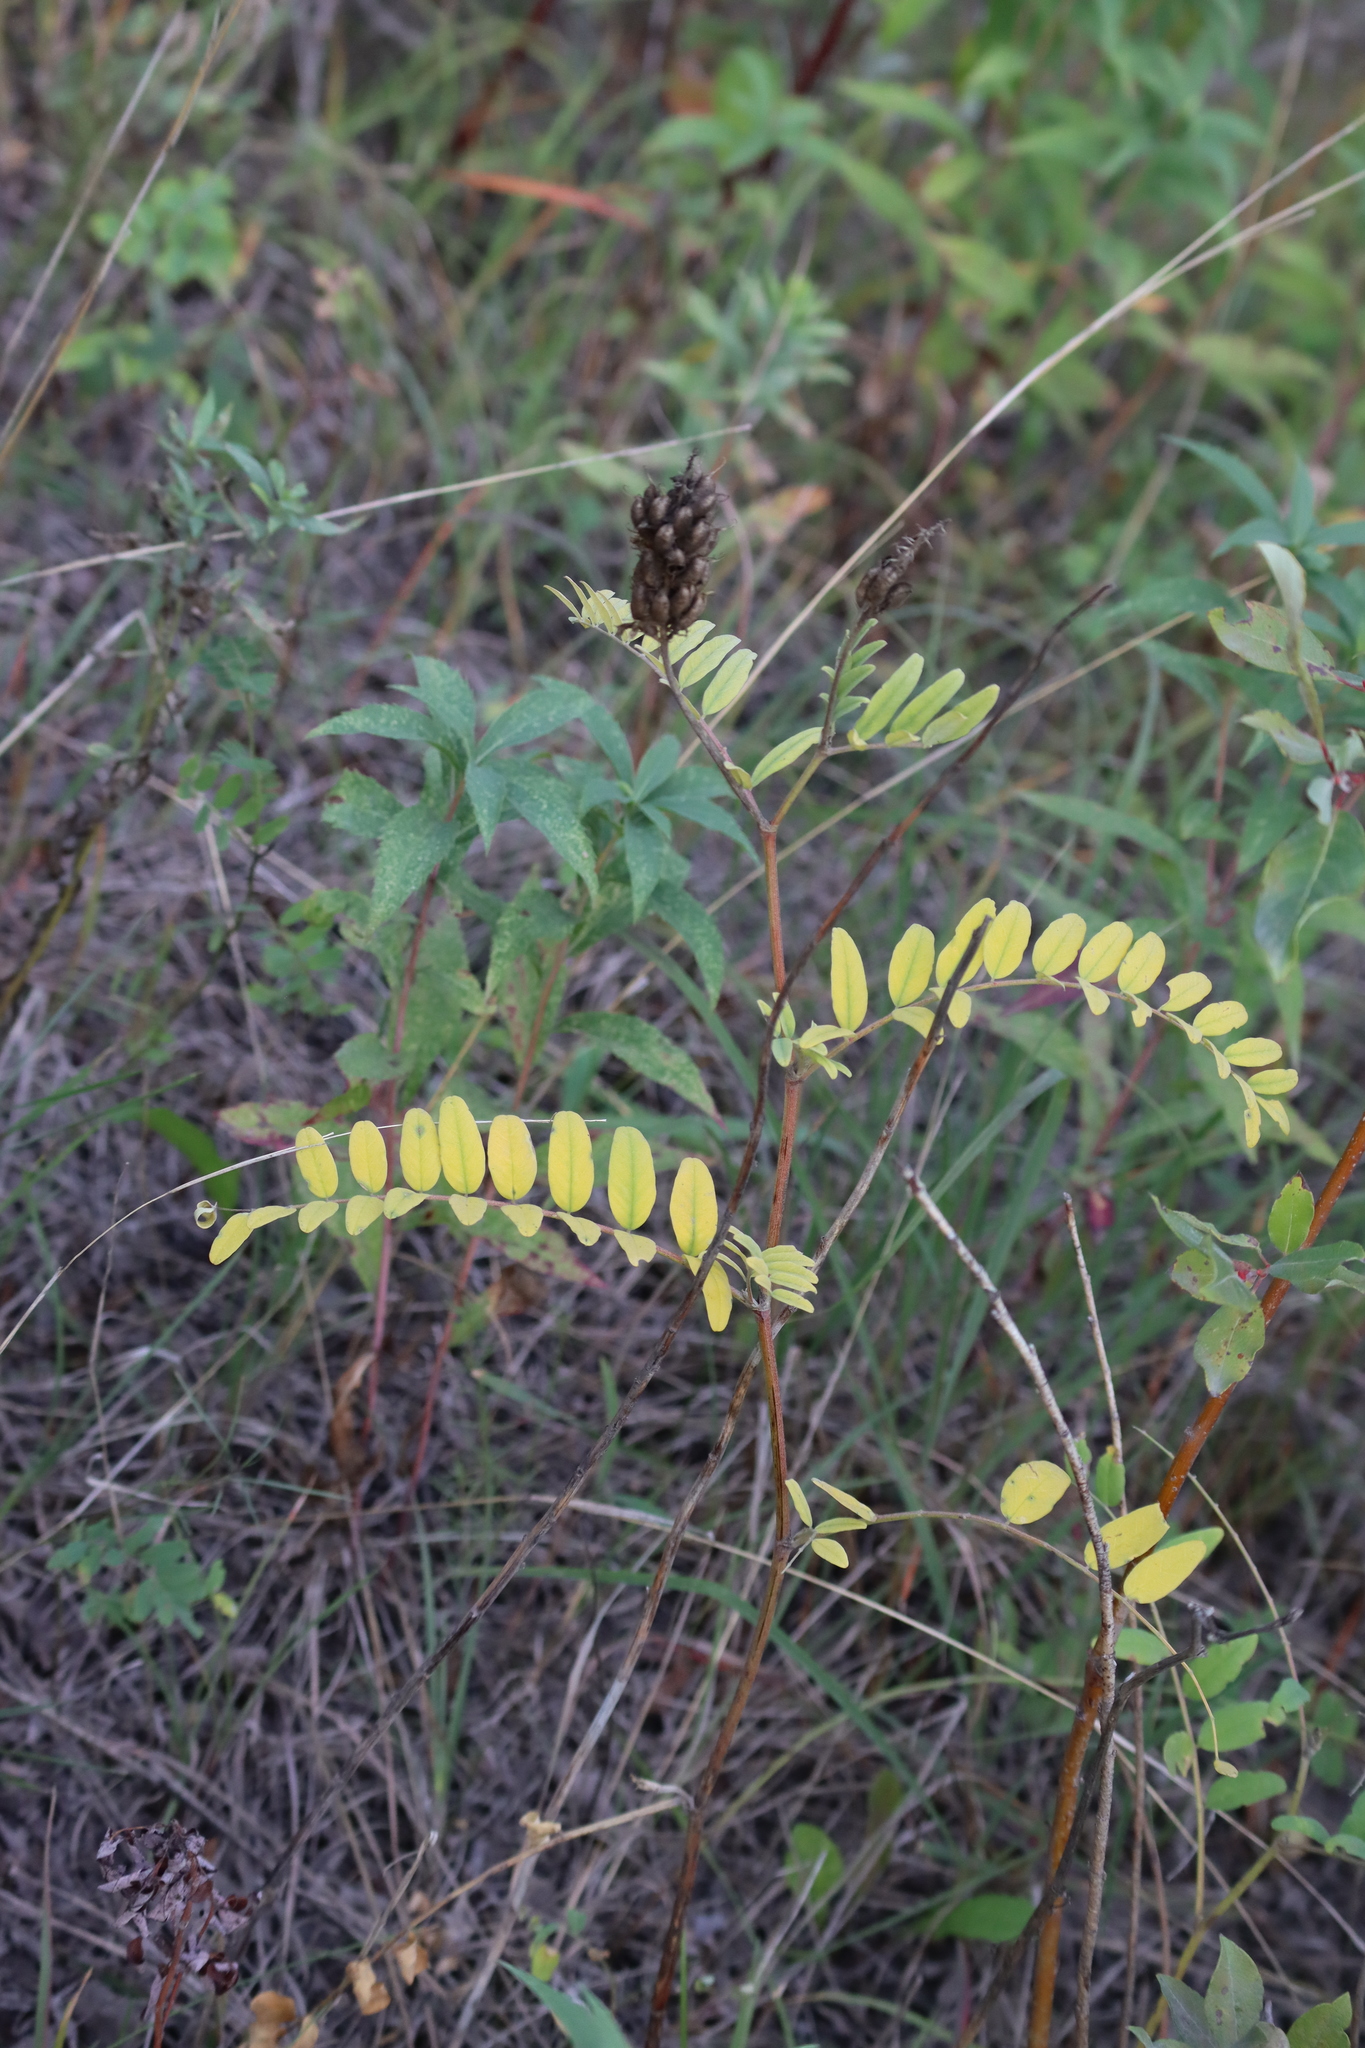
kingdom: Plantae
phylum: Tracheophyta
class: Magnoliopsida
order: Fabales
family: Fabaceae
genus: Astragalus
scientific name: Astragalus canadensis
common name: Canada milk-vetch
